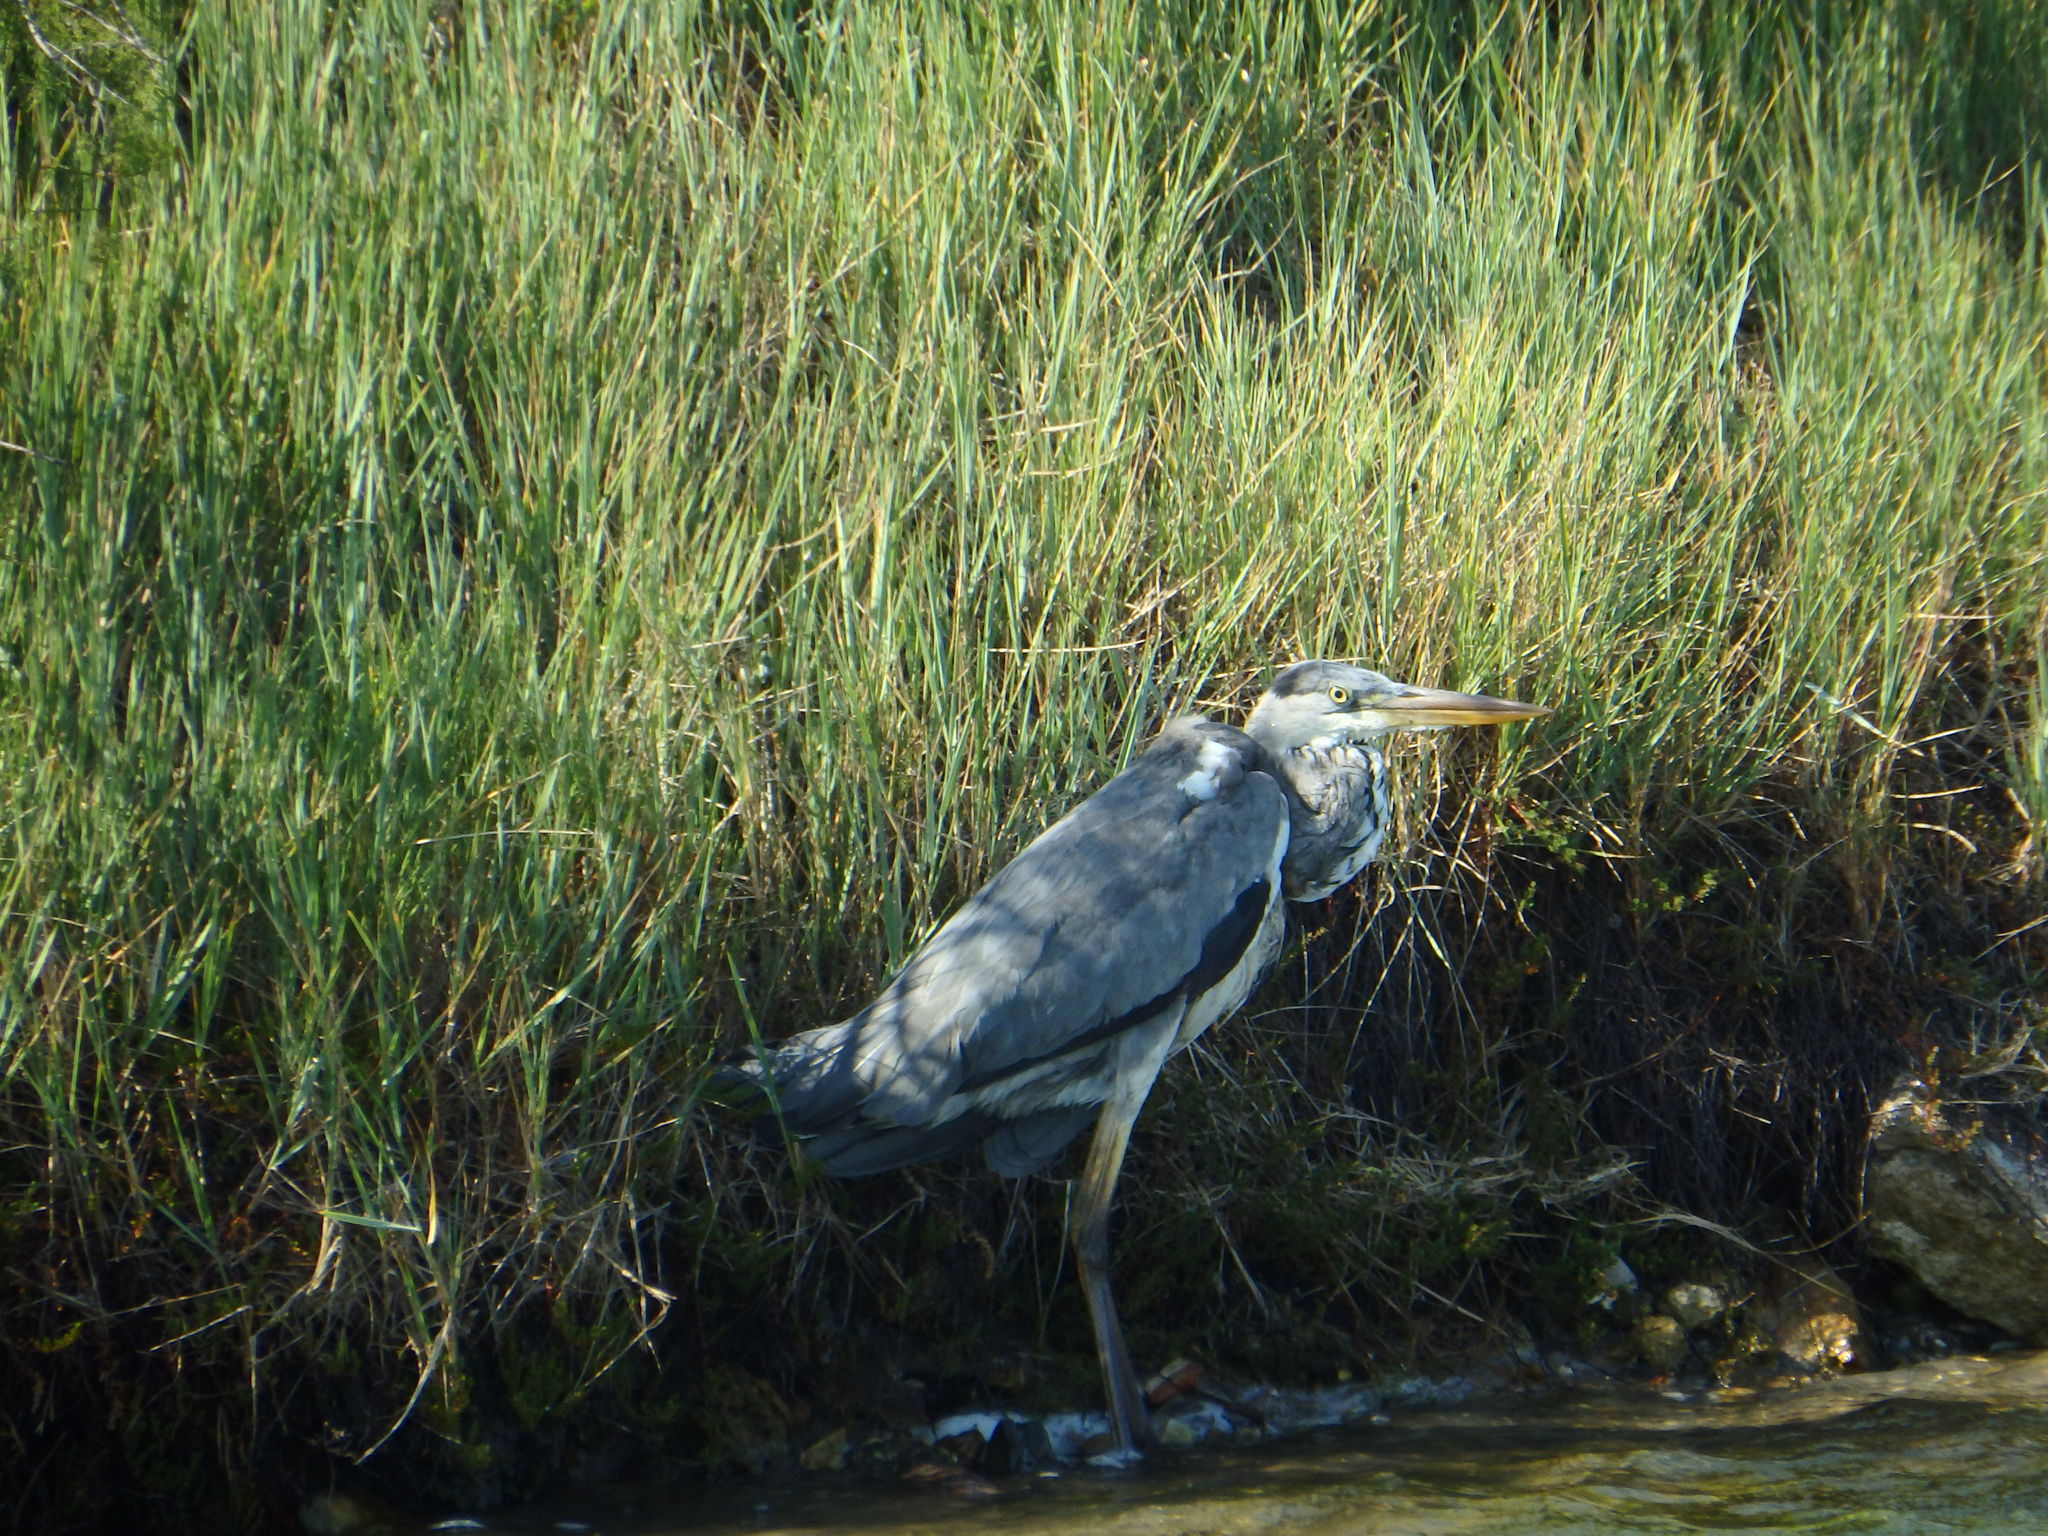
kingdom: Animalia
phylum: Chordata
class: Aves
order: Pelecaniformes
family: Ardeidae
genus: Ardea
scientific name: Ardea cinerea
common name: Grey heron
